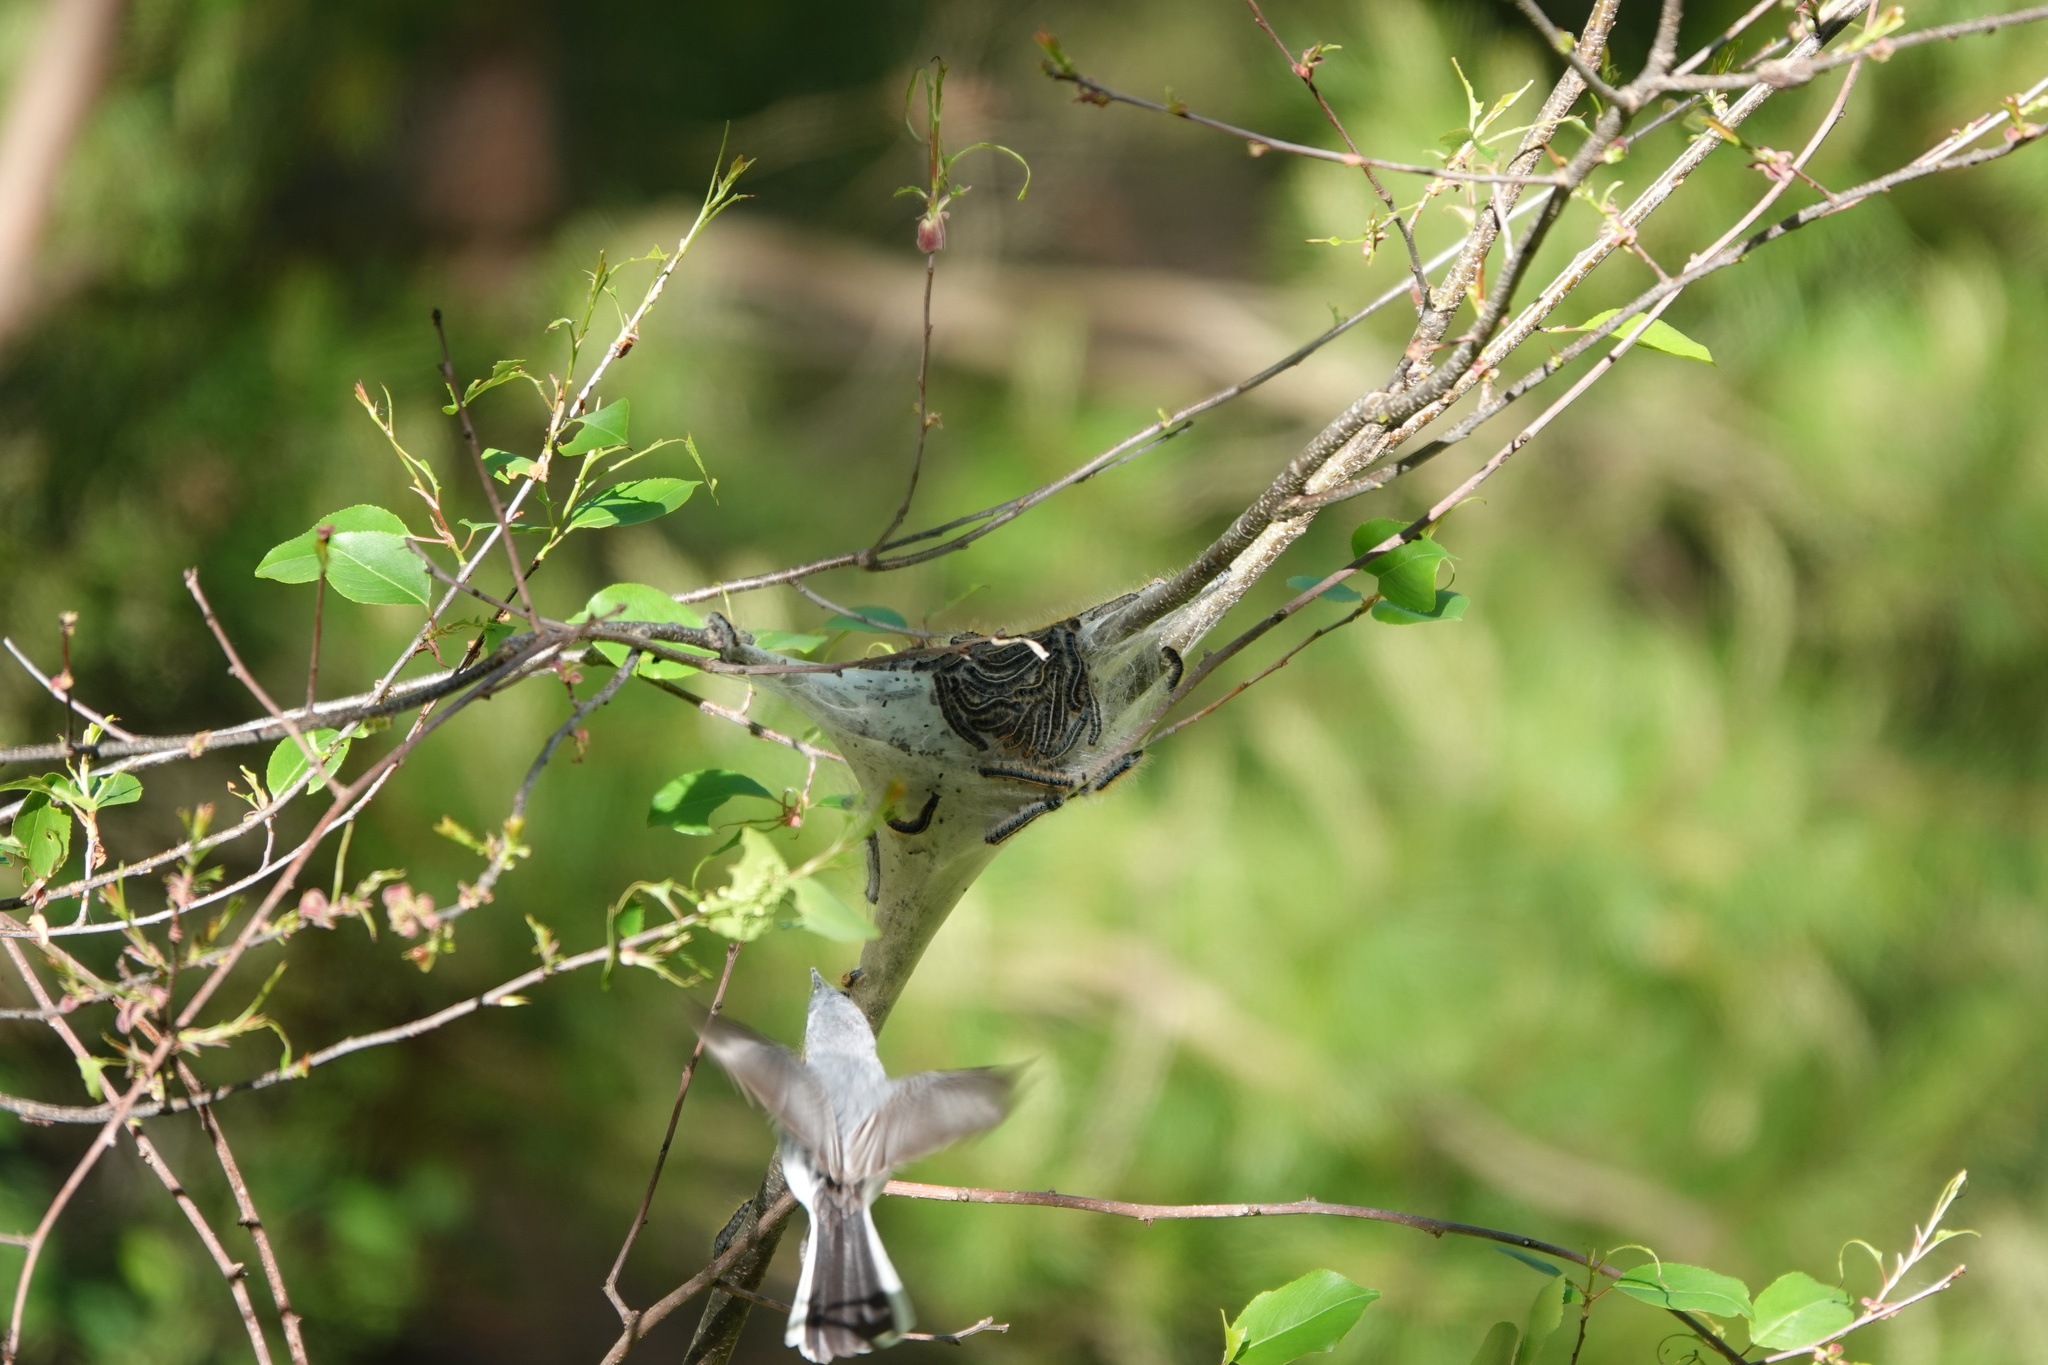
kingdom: Animalia
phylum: Chordata
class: Aves
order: Passeriformes
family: Polioptilidae
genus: Polioptila
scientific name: Polioptila caerulea
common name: Blue-gray gnatcatcher
